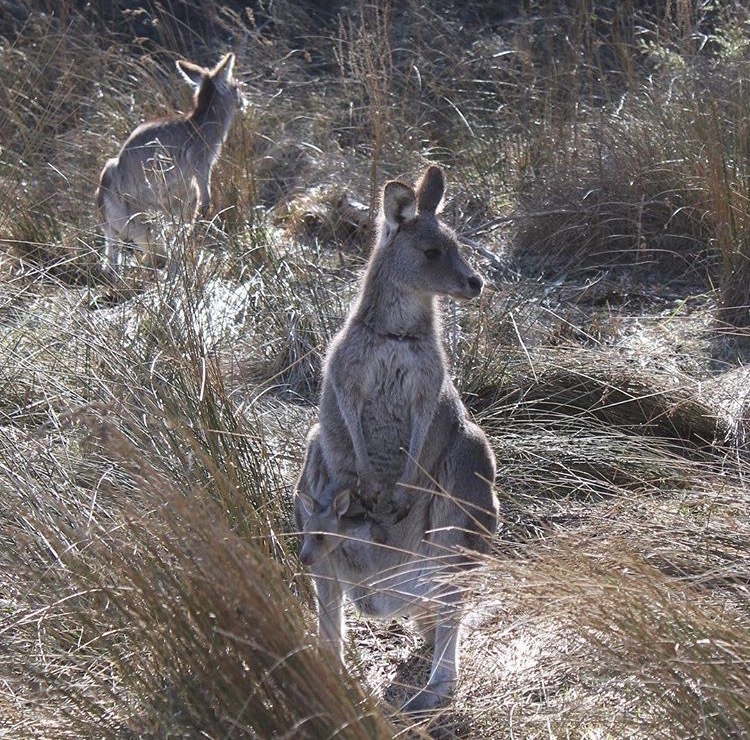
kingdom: Animalia
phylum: Chordata
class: Mammalia
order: Diprotodontia
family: Macropodidae
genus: Macropus
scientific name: Macropus giganteus
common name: Eastern grey kangaroo
